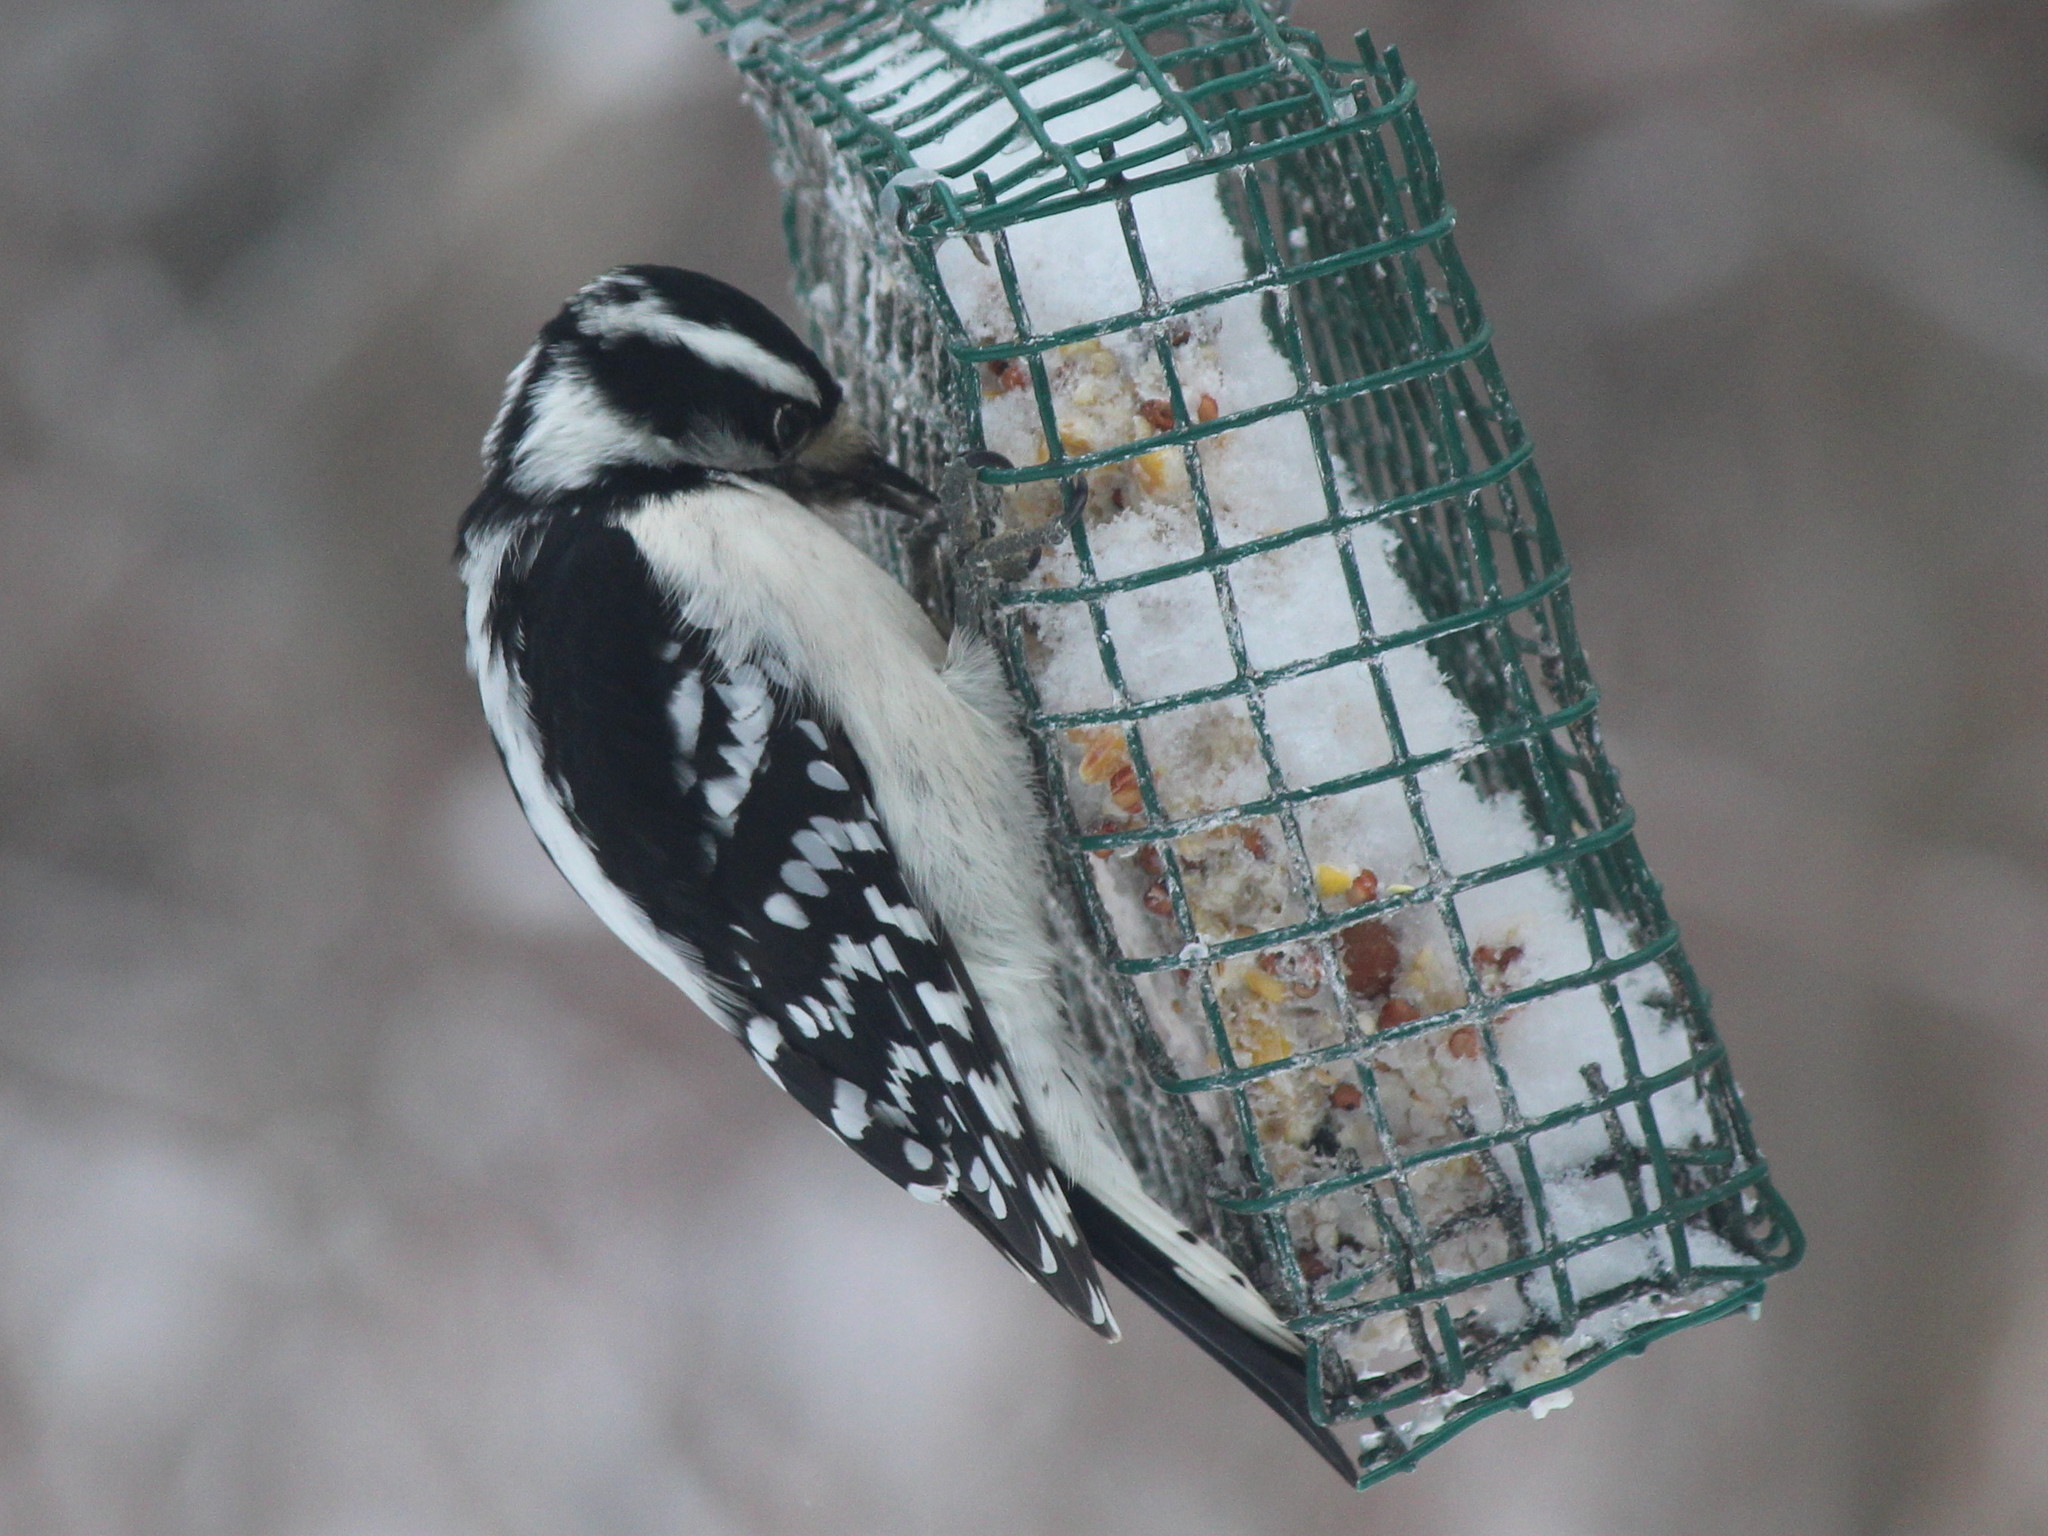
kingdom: Animalia
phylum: Chordata
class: Aves
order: Piciformes
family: Picidae
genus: Dryobates
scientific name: Dryobates pubescens
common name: Downy woodpecker
